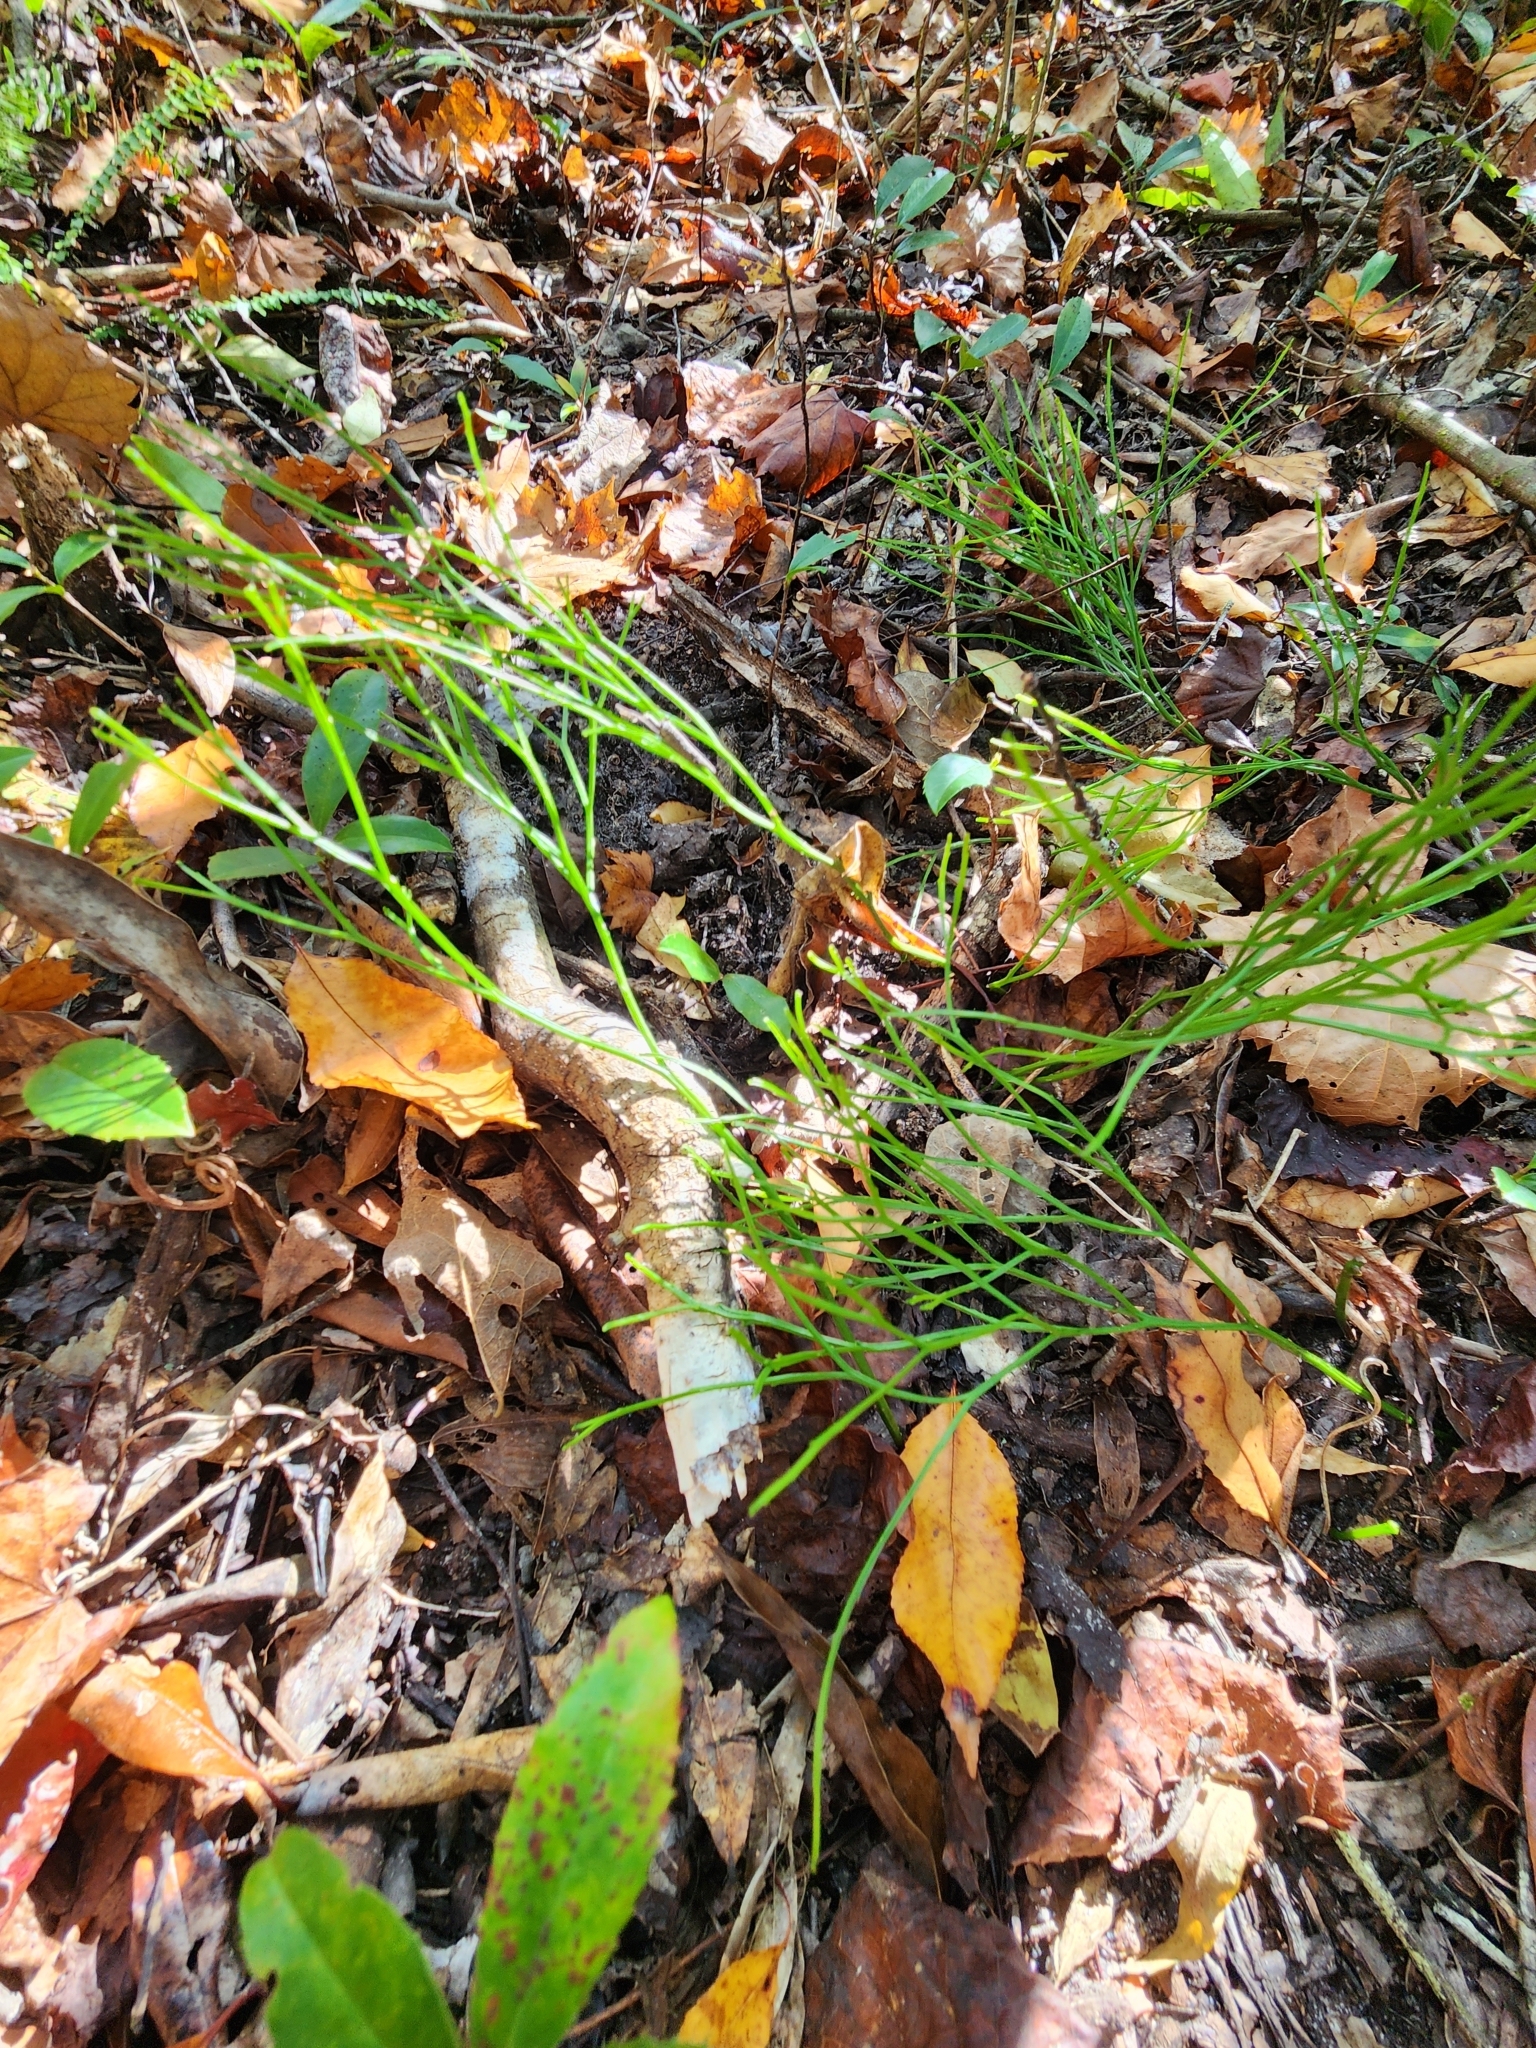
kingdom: Plantae
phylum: Tracheophyta
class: Polypodiopsida
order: Psilotales
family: Psilotaceae
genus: Psilotum
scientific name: Psilotum nudum
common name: Skeleton fork fern
